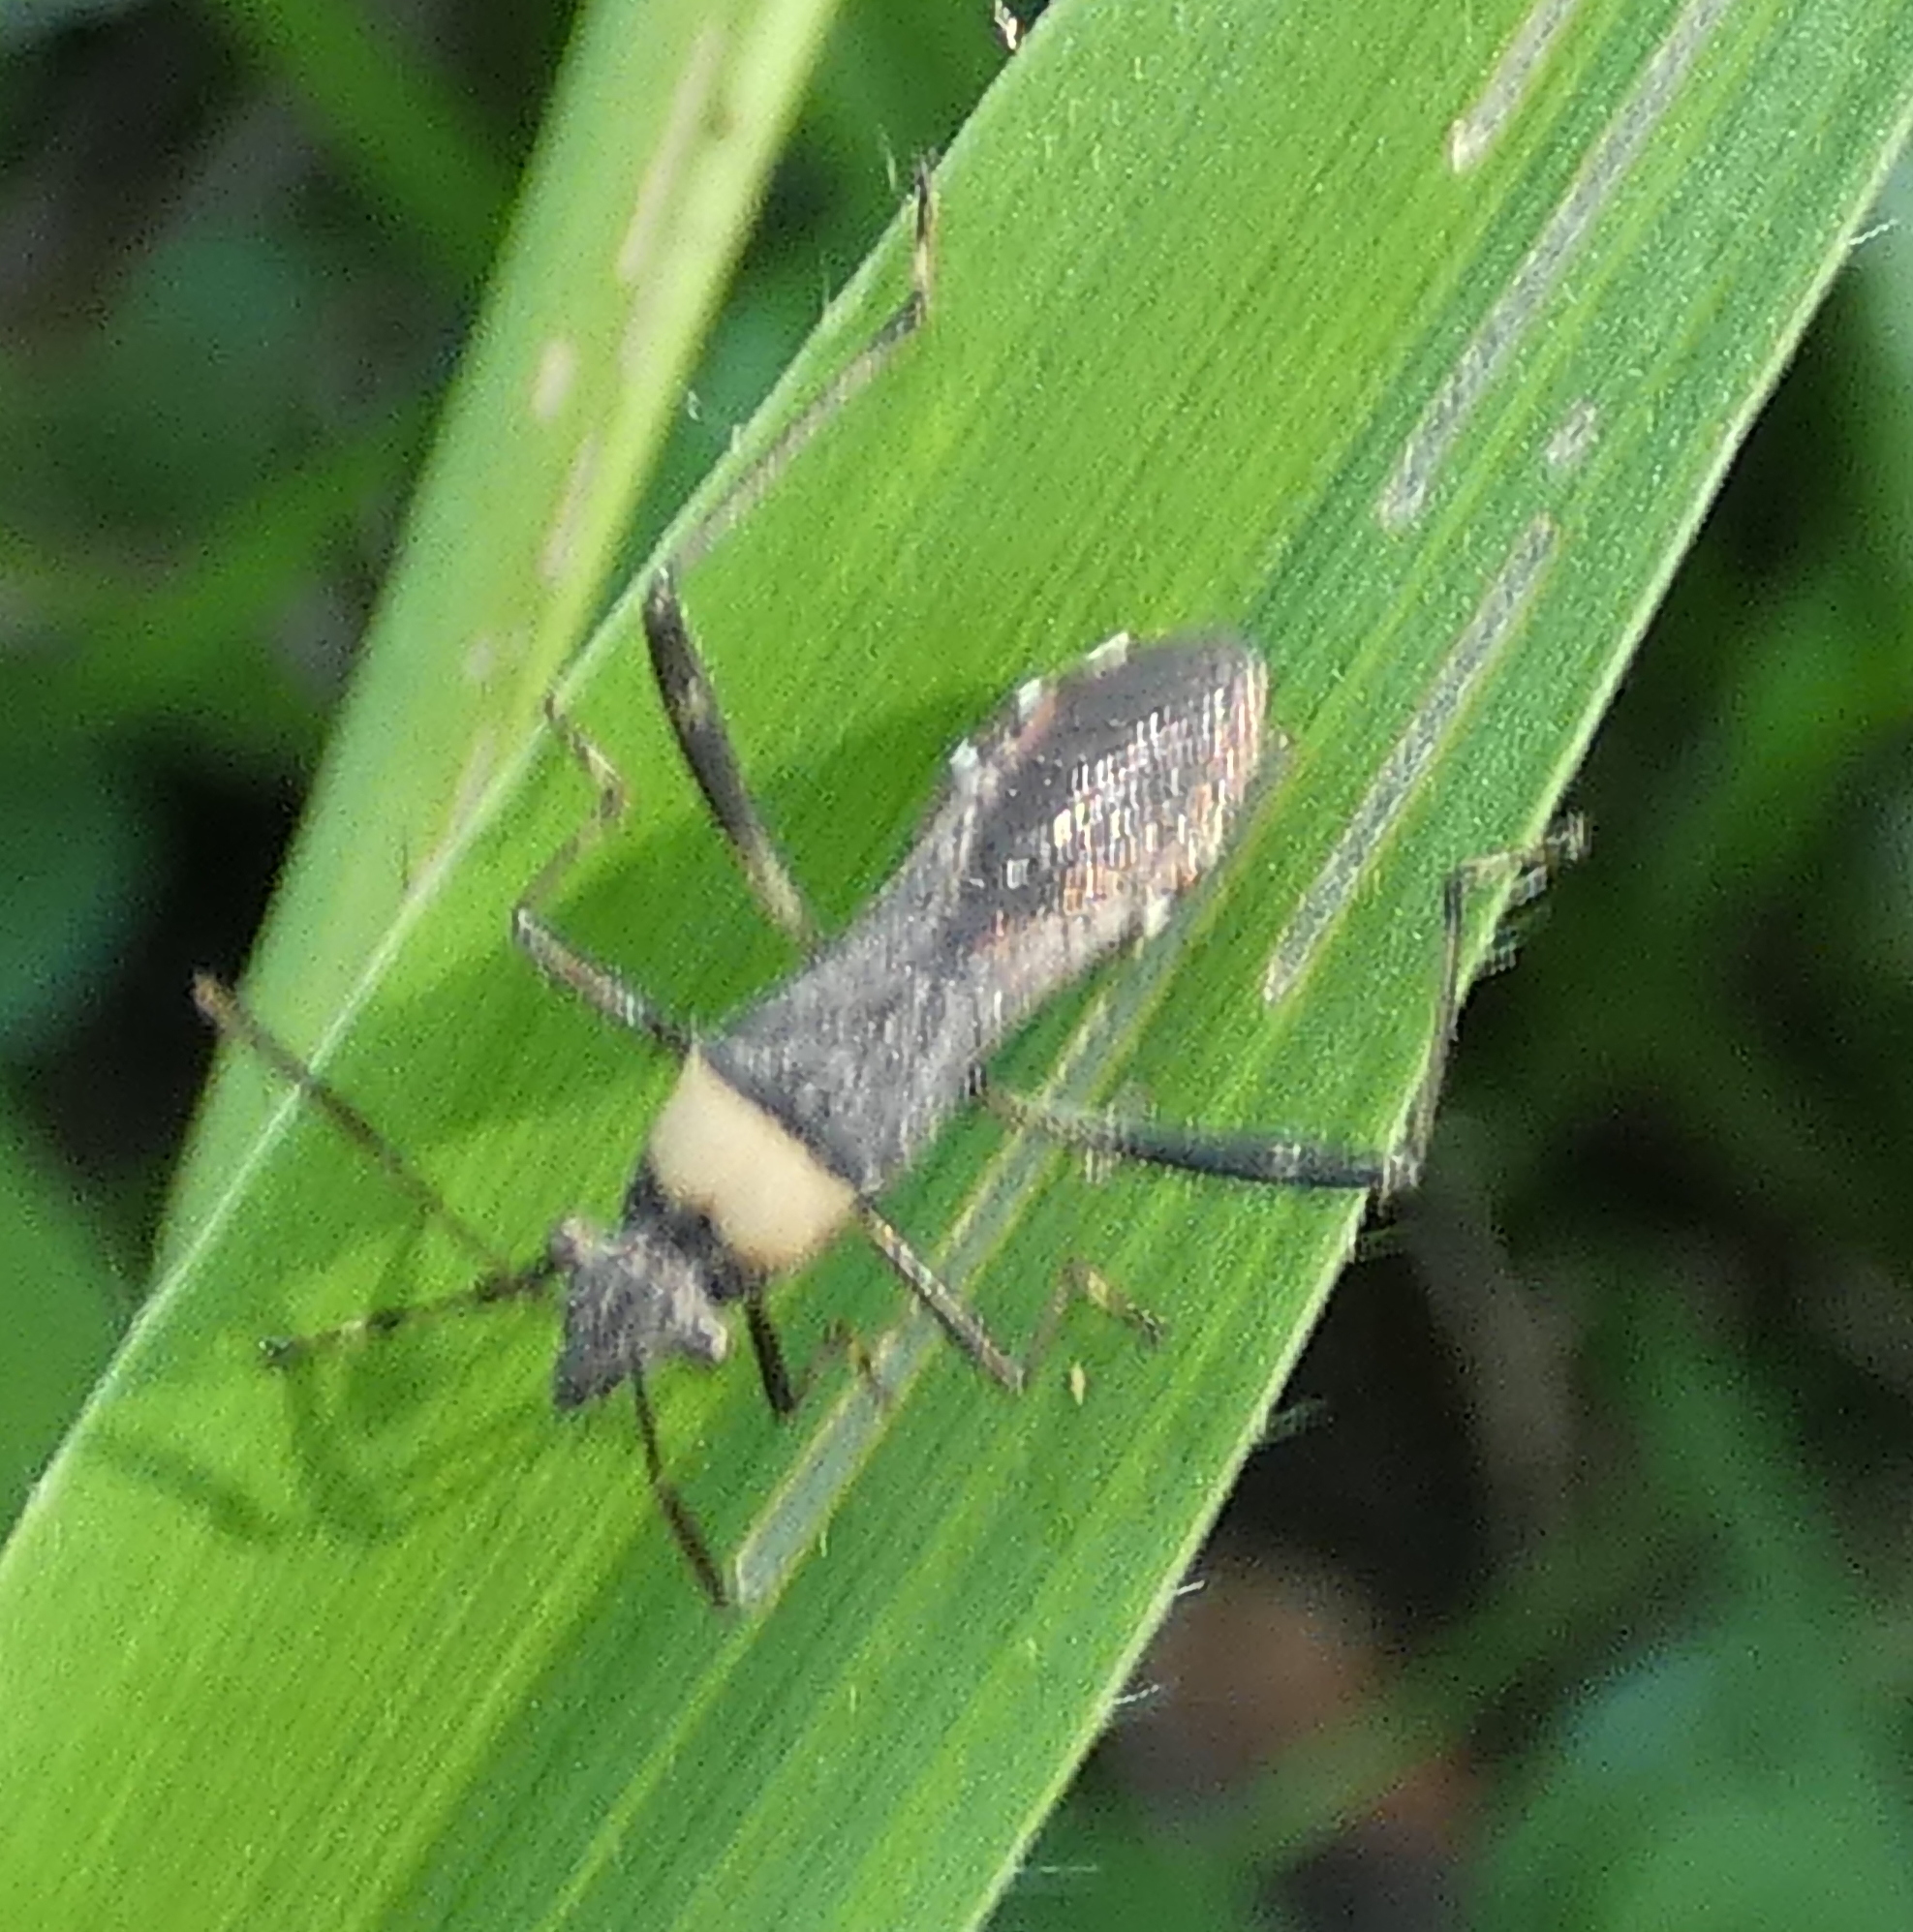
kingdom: Animalia
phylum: Arthropoda
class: Insecta
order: Hemiptera
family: Alydidae
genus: Neomegalotomus
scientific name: Neomegalotomus parvus
